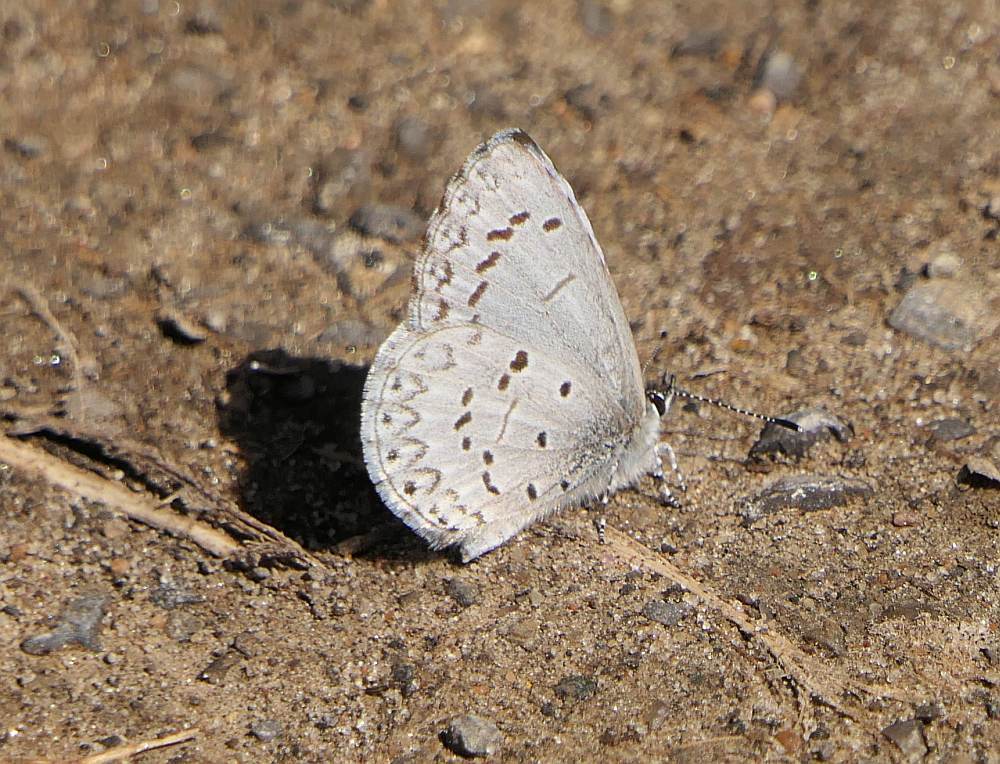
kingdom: Animalia
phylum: Arthropoda
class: Insecta
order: Lepidoptera
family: Lycaenidae
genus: Celastrina
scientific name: Celastrina lucia
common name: Lucia azure
